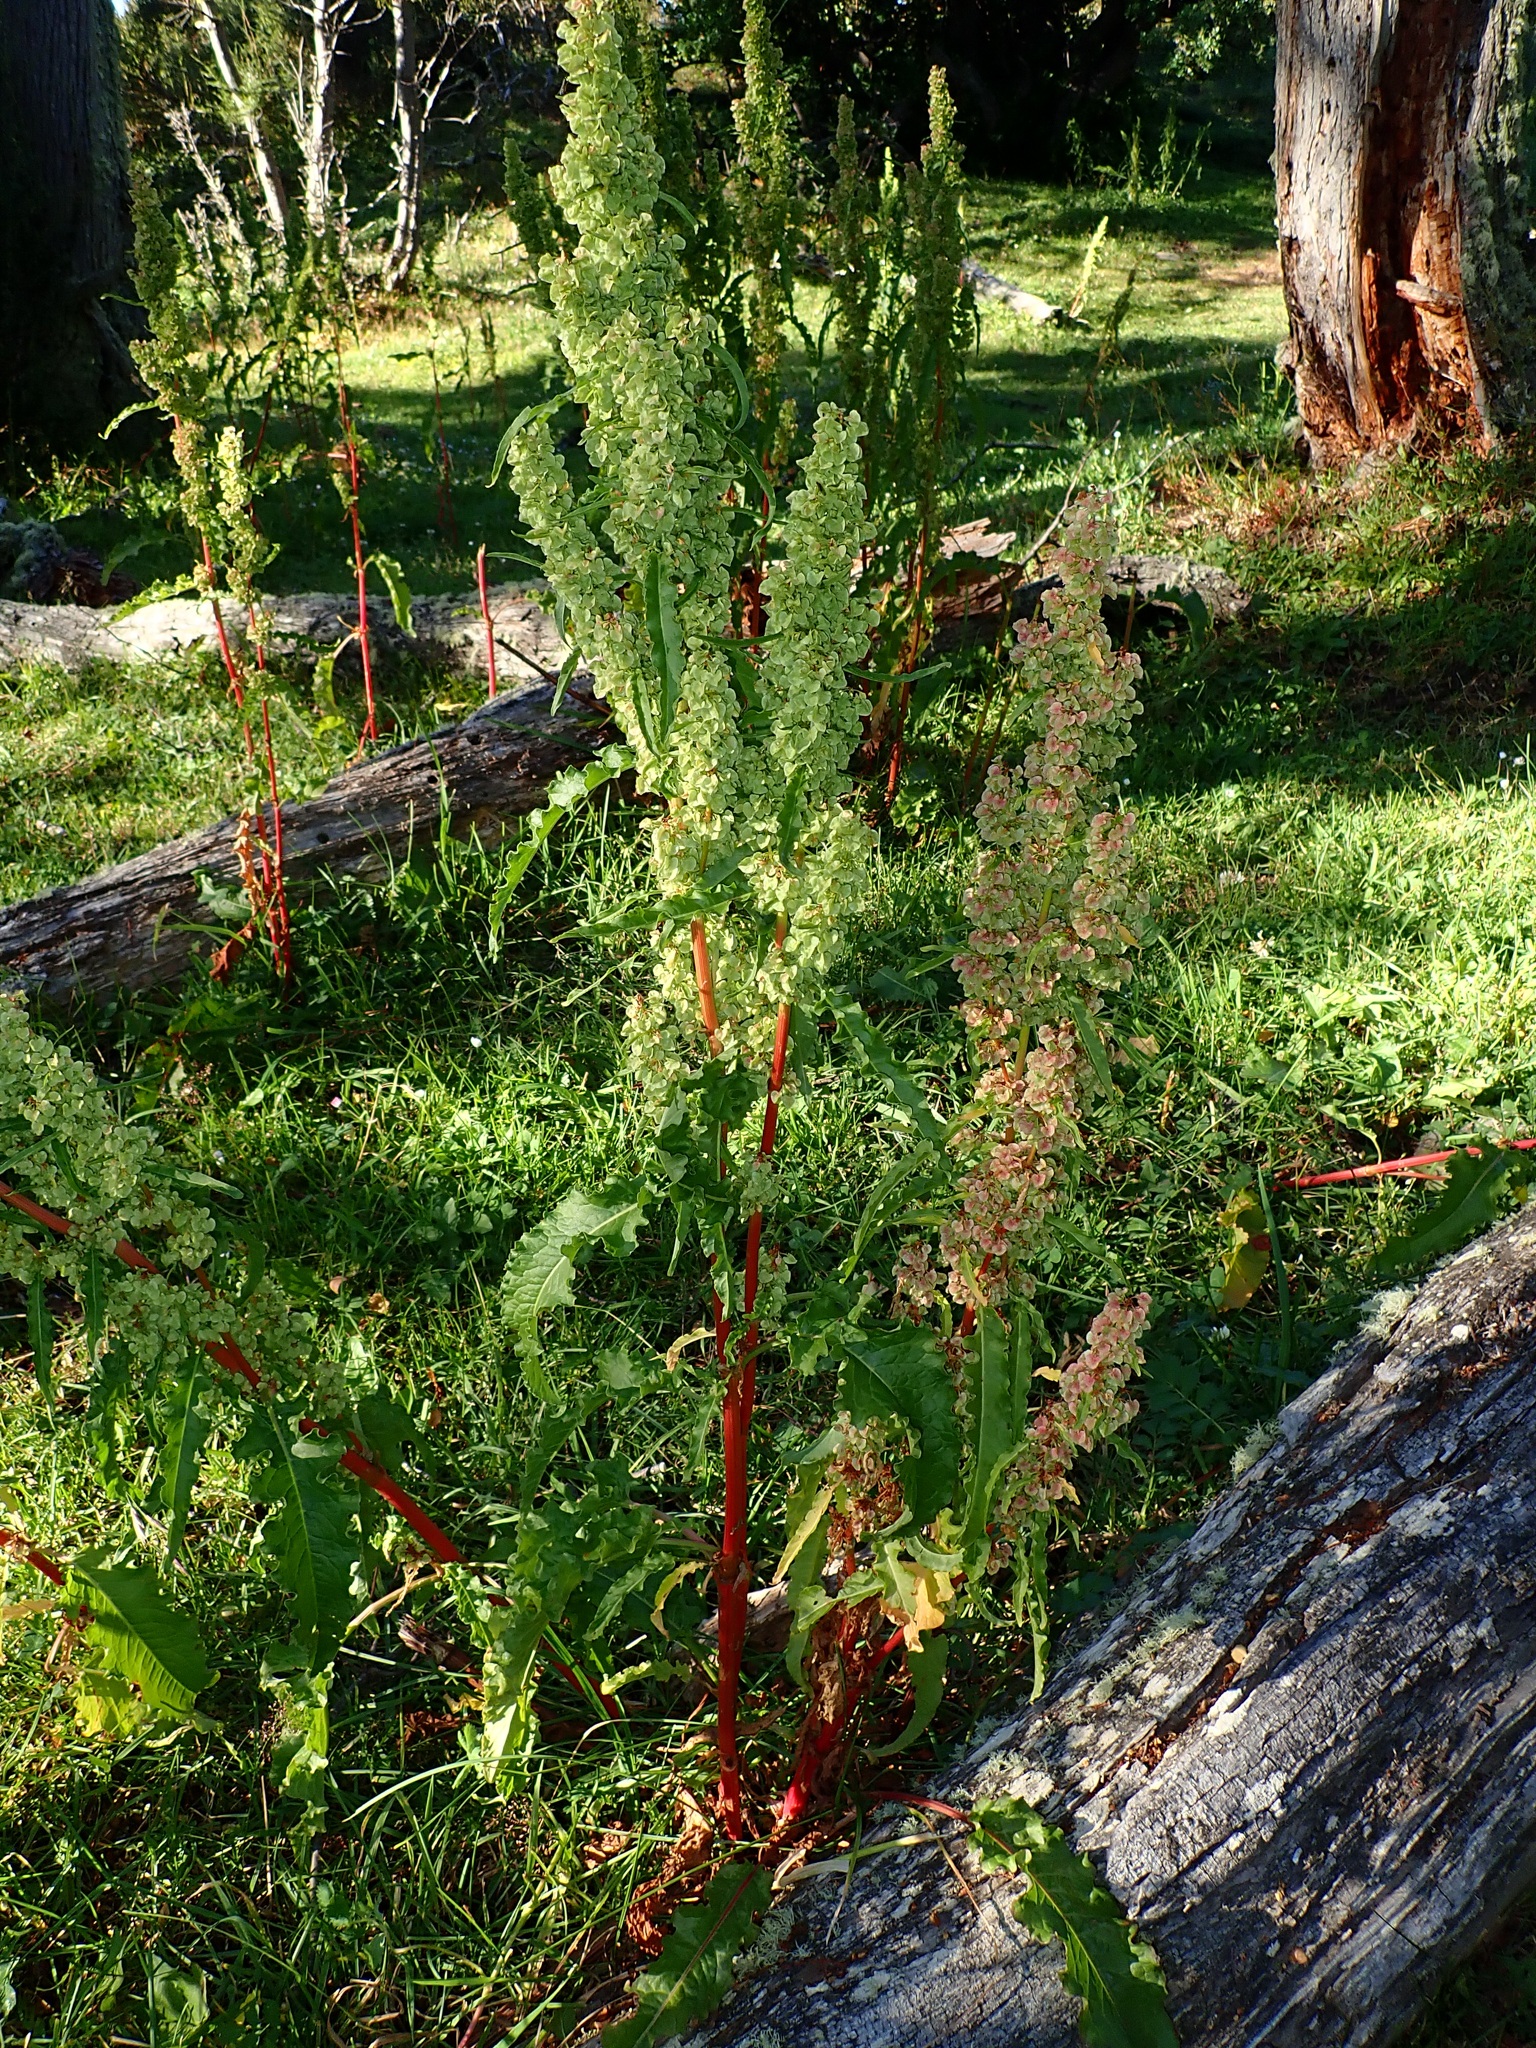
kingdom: Plantae
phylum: Tracheophyta
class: Magnoliopsida
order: Caryophyllales
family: Polygonaceae
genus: Rumex
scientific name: Rumex crispus
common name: Curled dock
